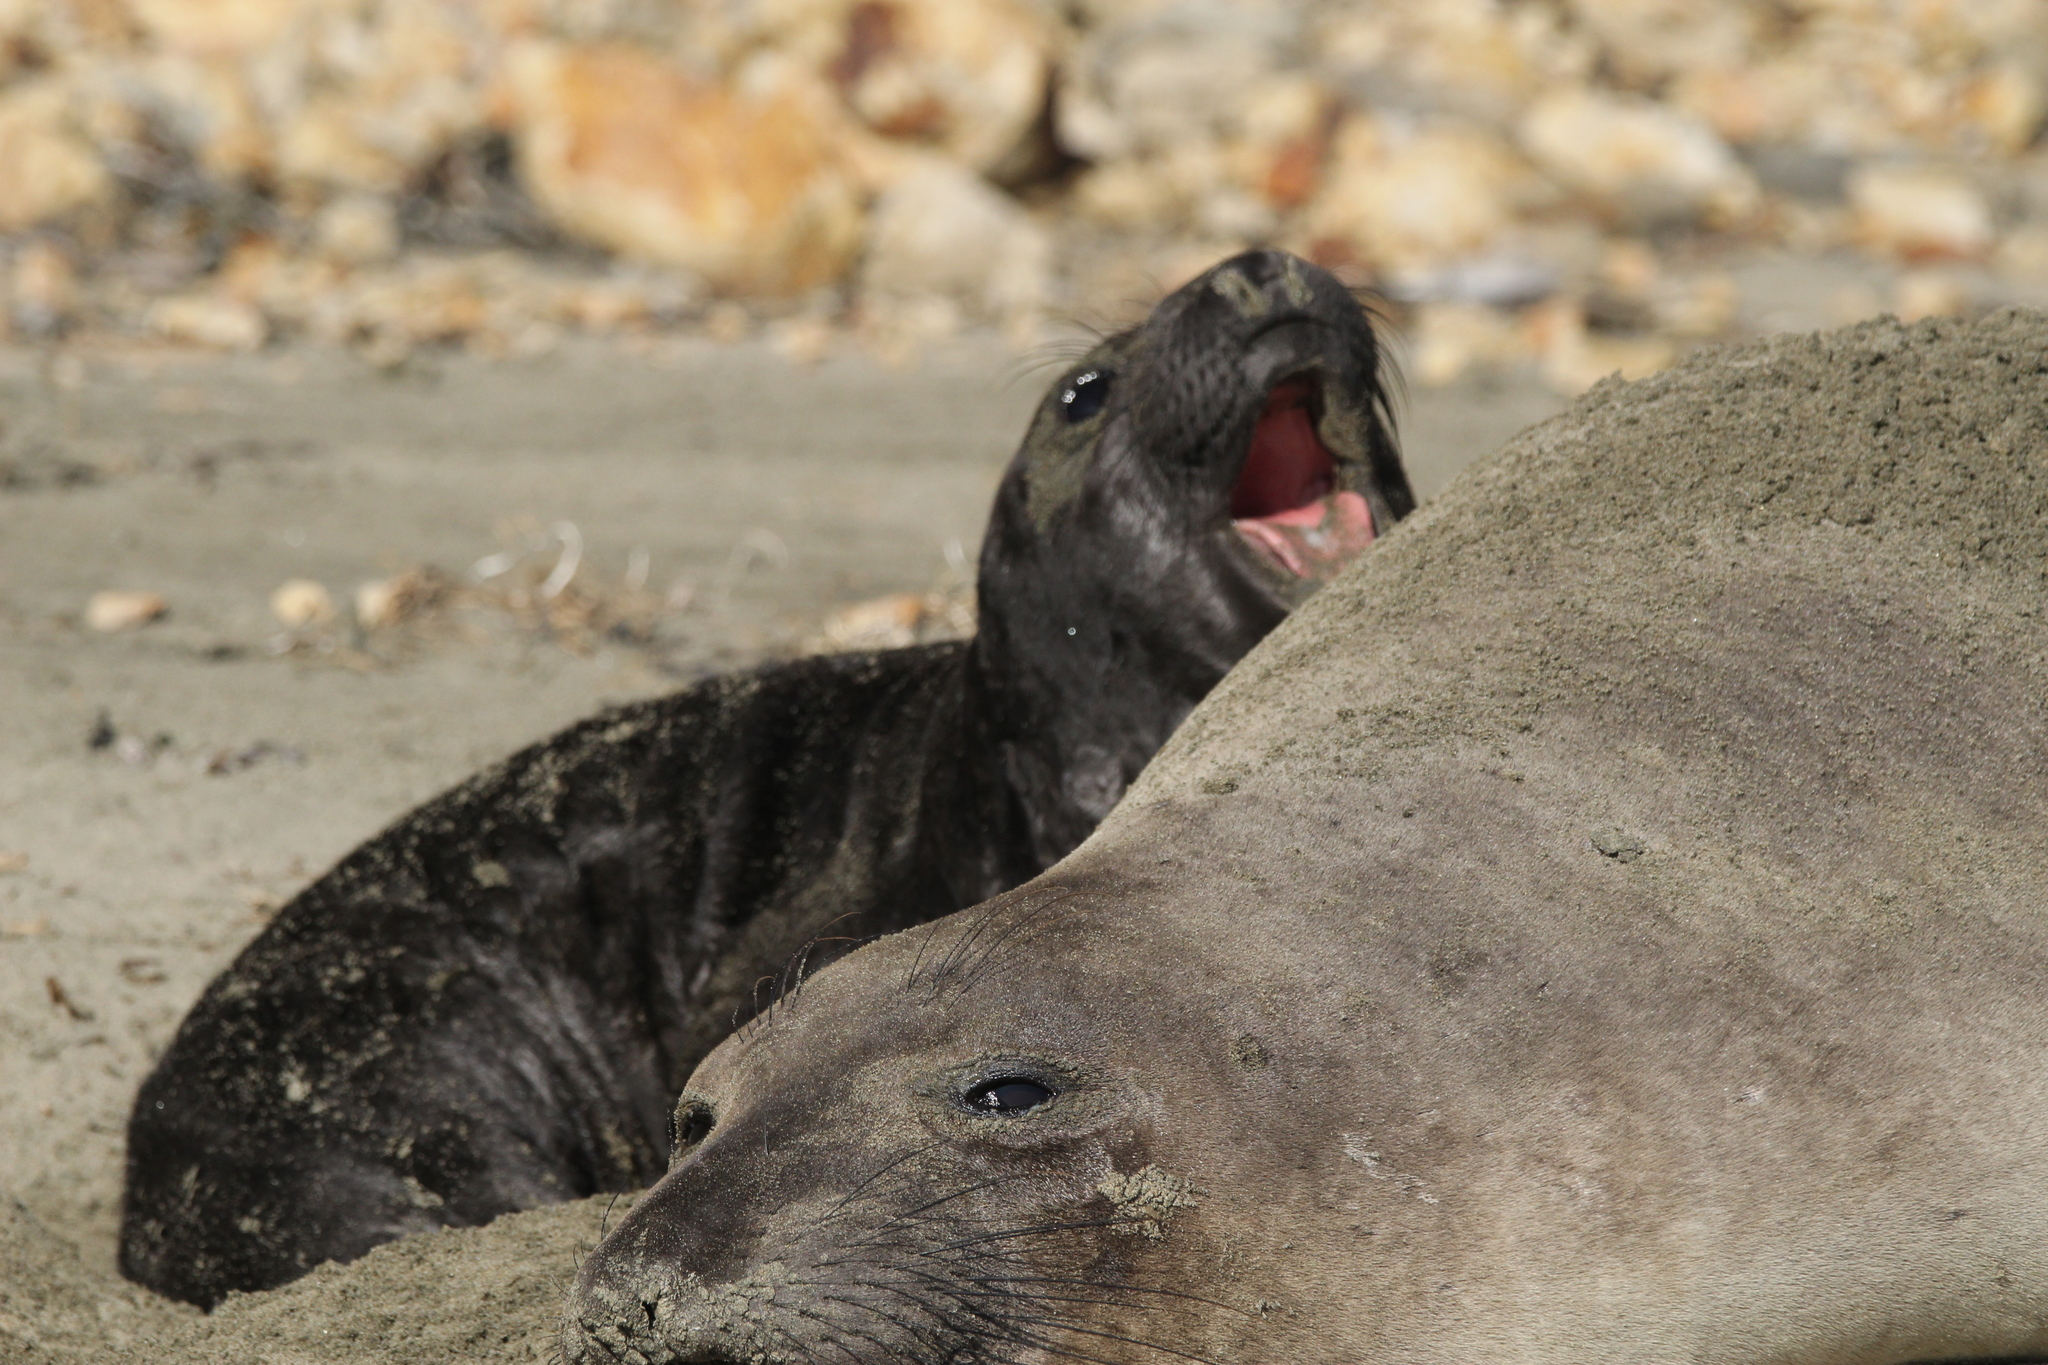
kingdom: Animalia
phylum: Chordata
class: Mammalia
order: Carnivora
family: Phocidae
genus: Mirounga
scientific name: Mirounga angustirostris
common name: Northern elephant seal
